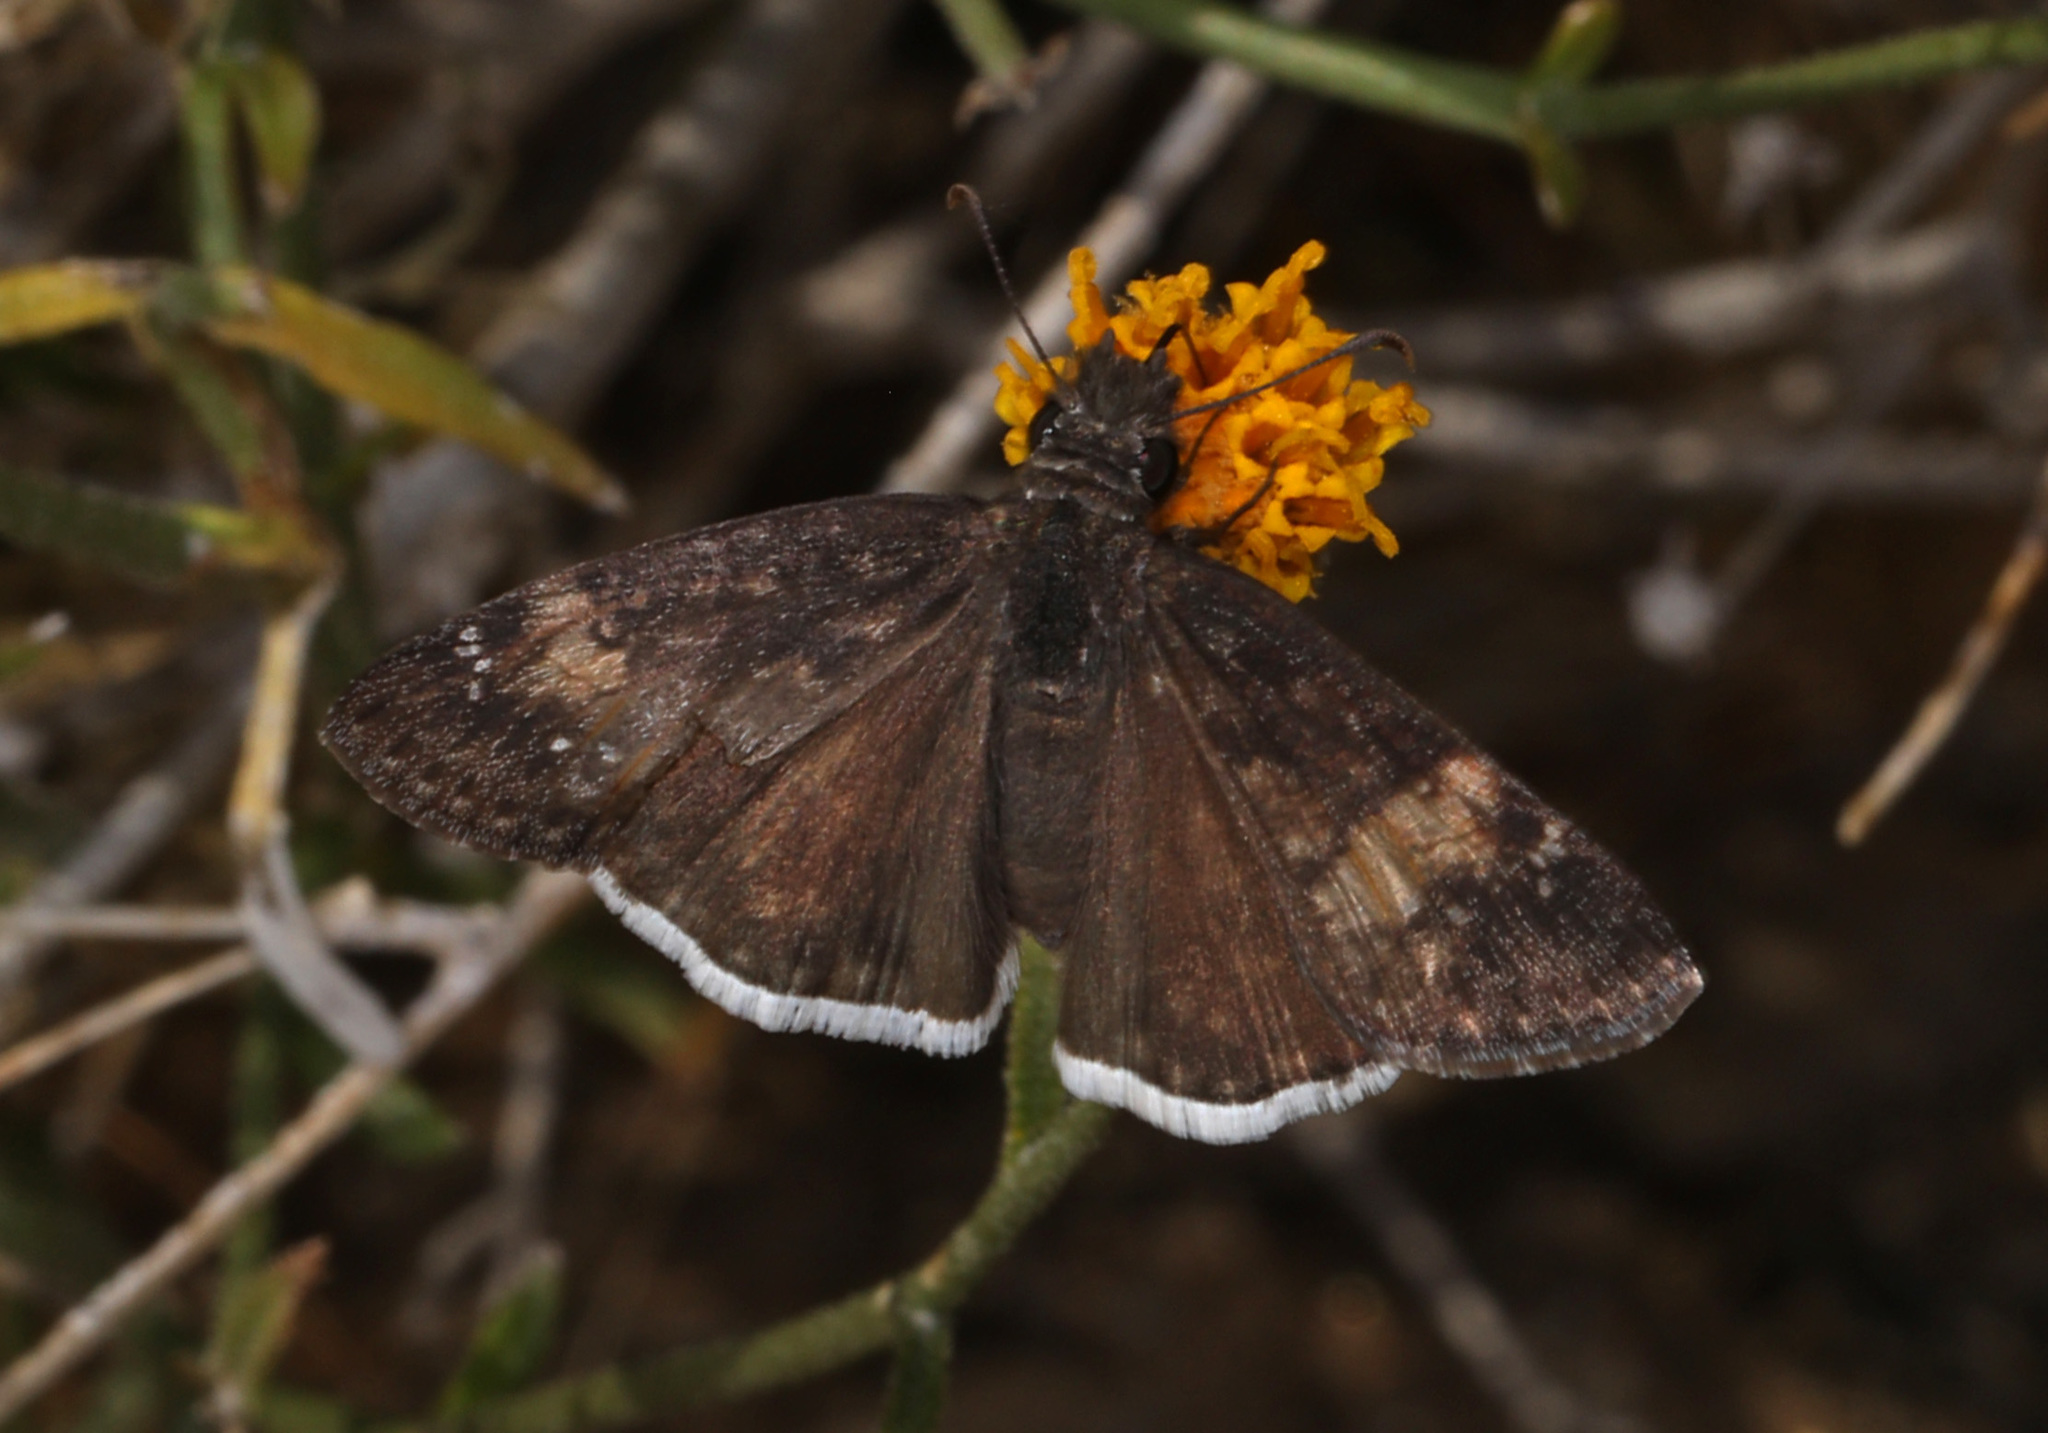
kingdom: Animalia
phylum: Arthropoda
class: Insecta
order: Lepidoptera
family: Hesperiidae
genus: Erynnis
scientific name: Erynnis funeralis
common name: Funereal duskywing
